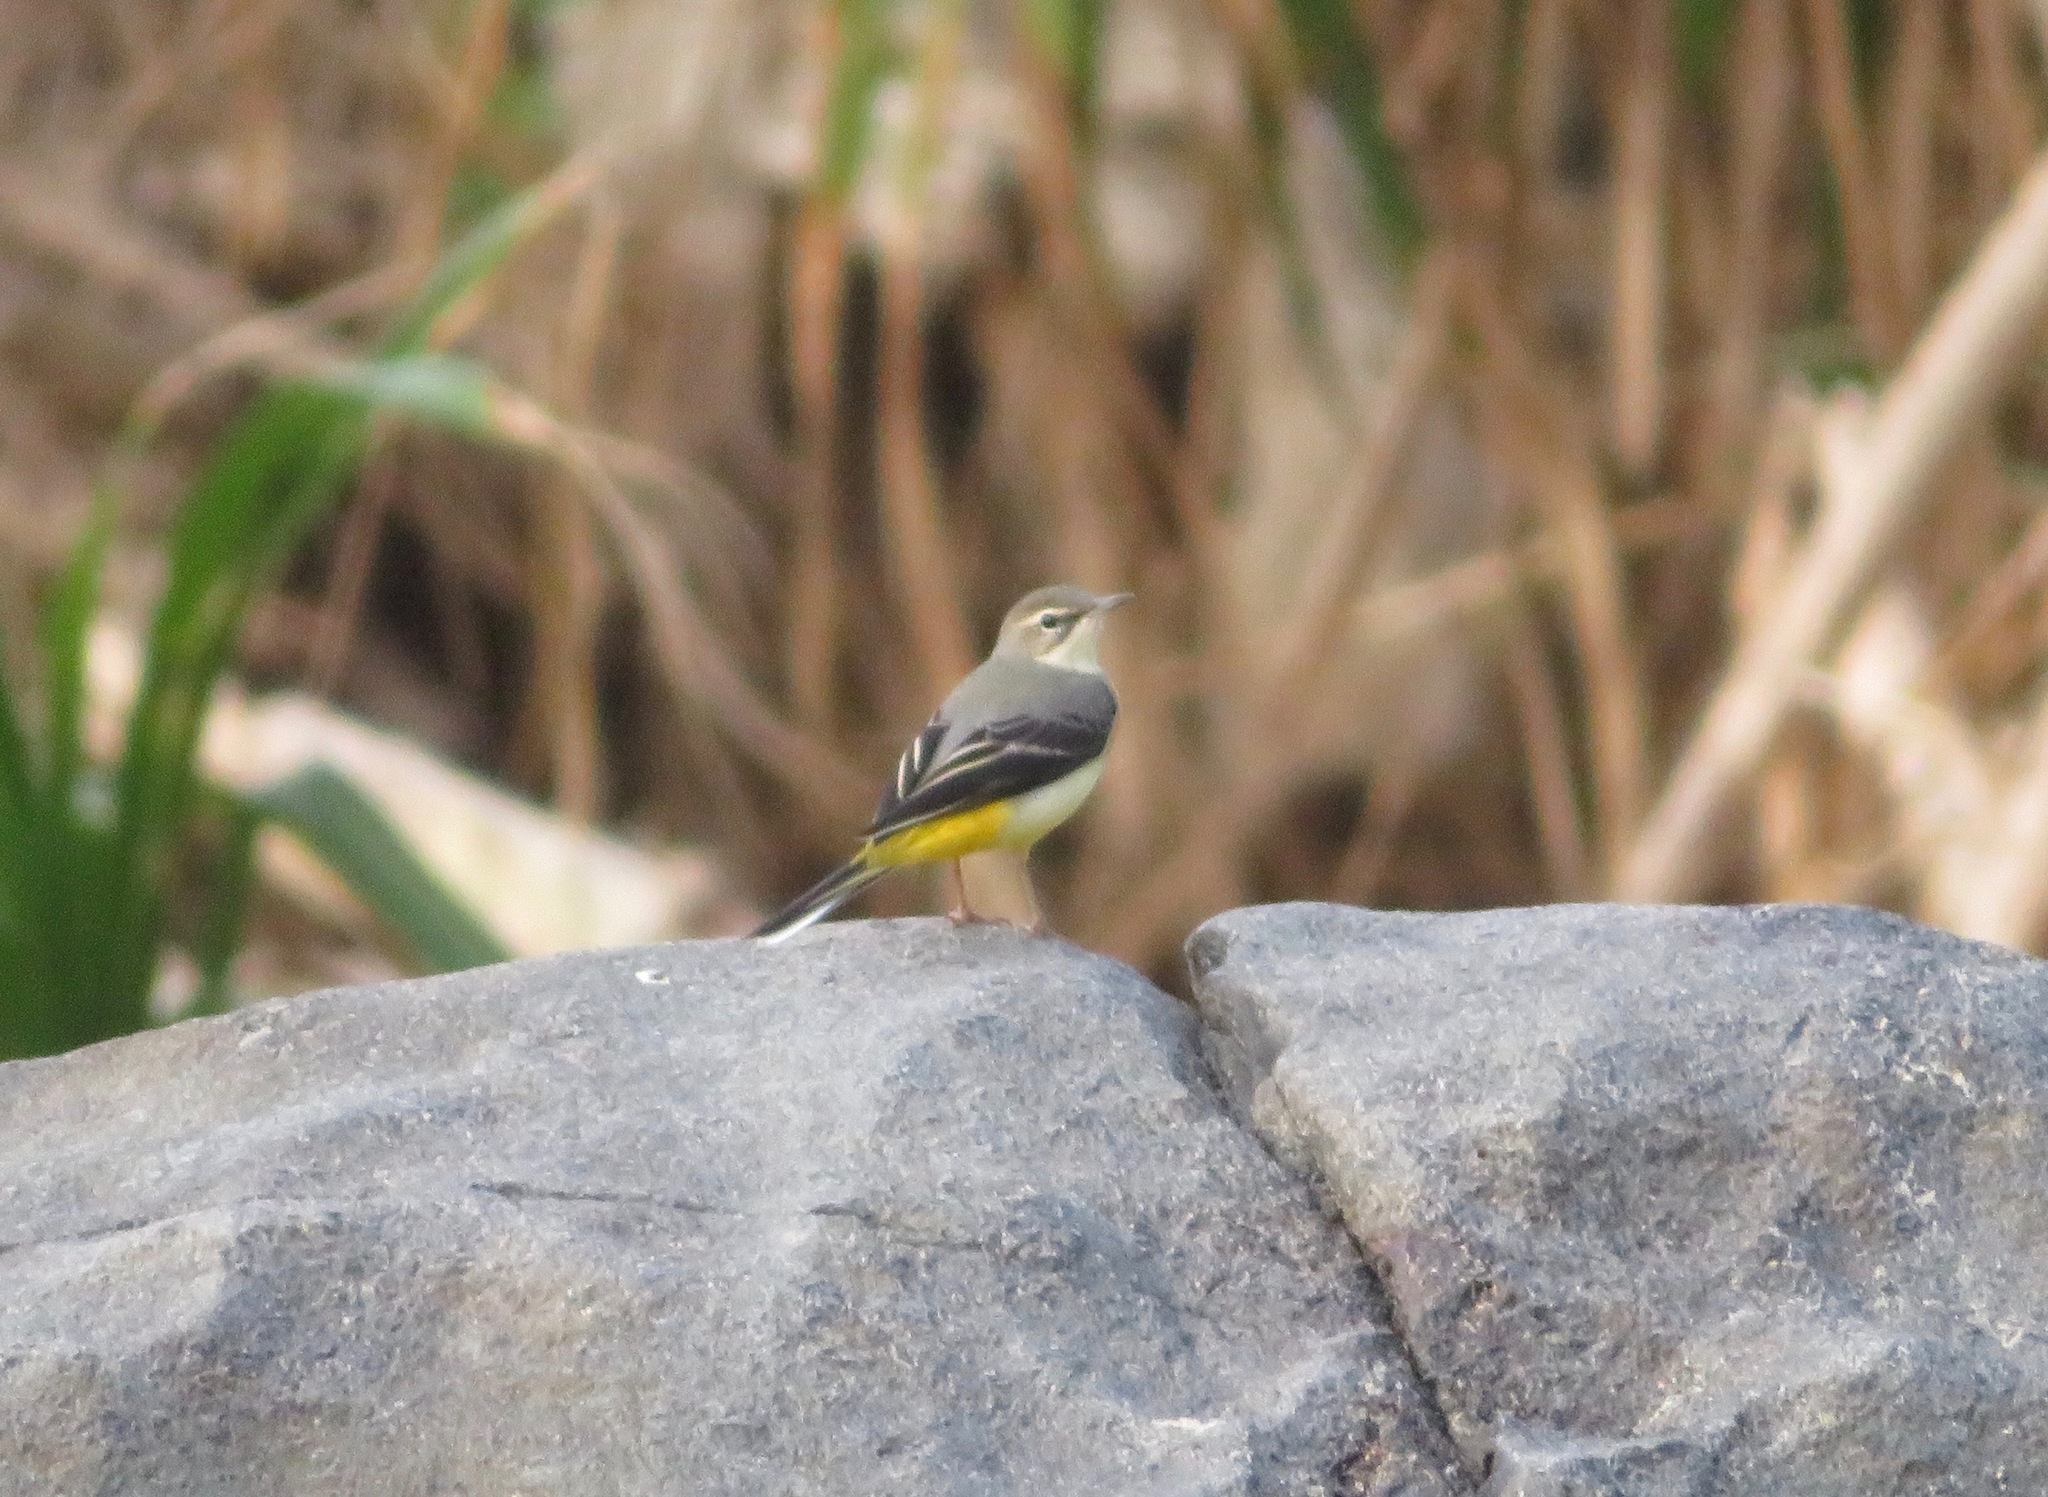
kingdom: Animalia
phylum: Chordata
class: Aves
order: Passeriformes
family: Motacillidae
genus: Motacilla
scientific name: Motacilla cinerea
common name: Grey wagtail
